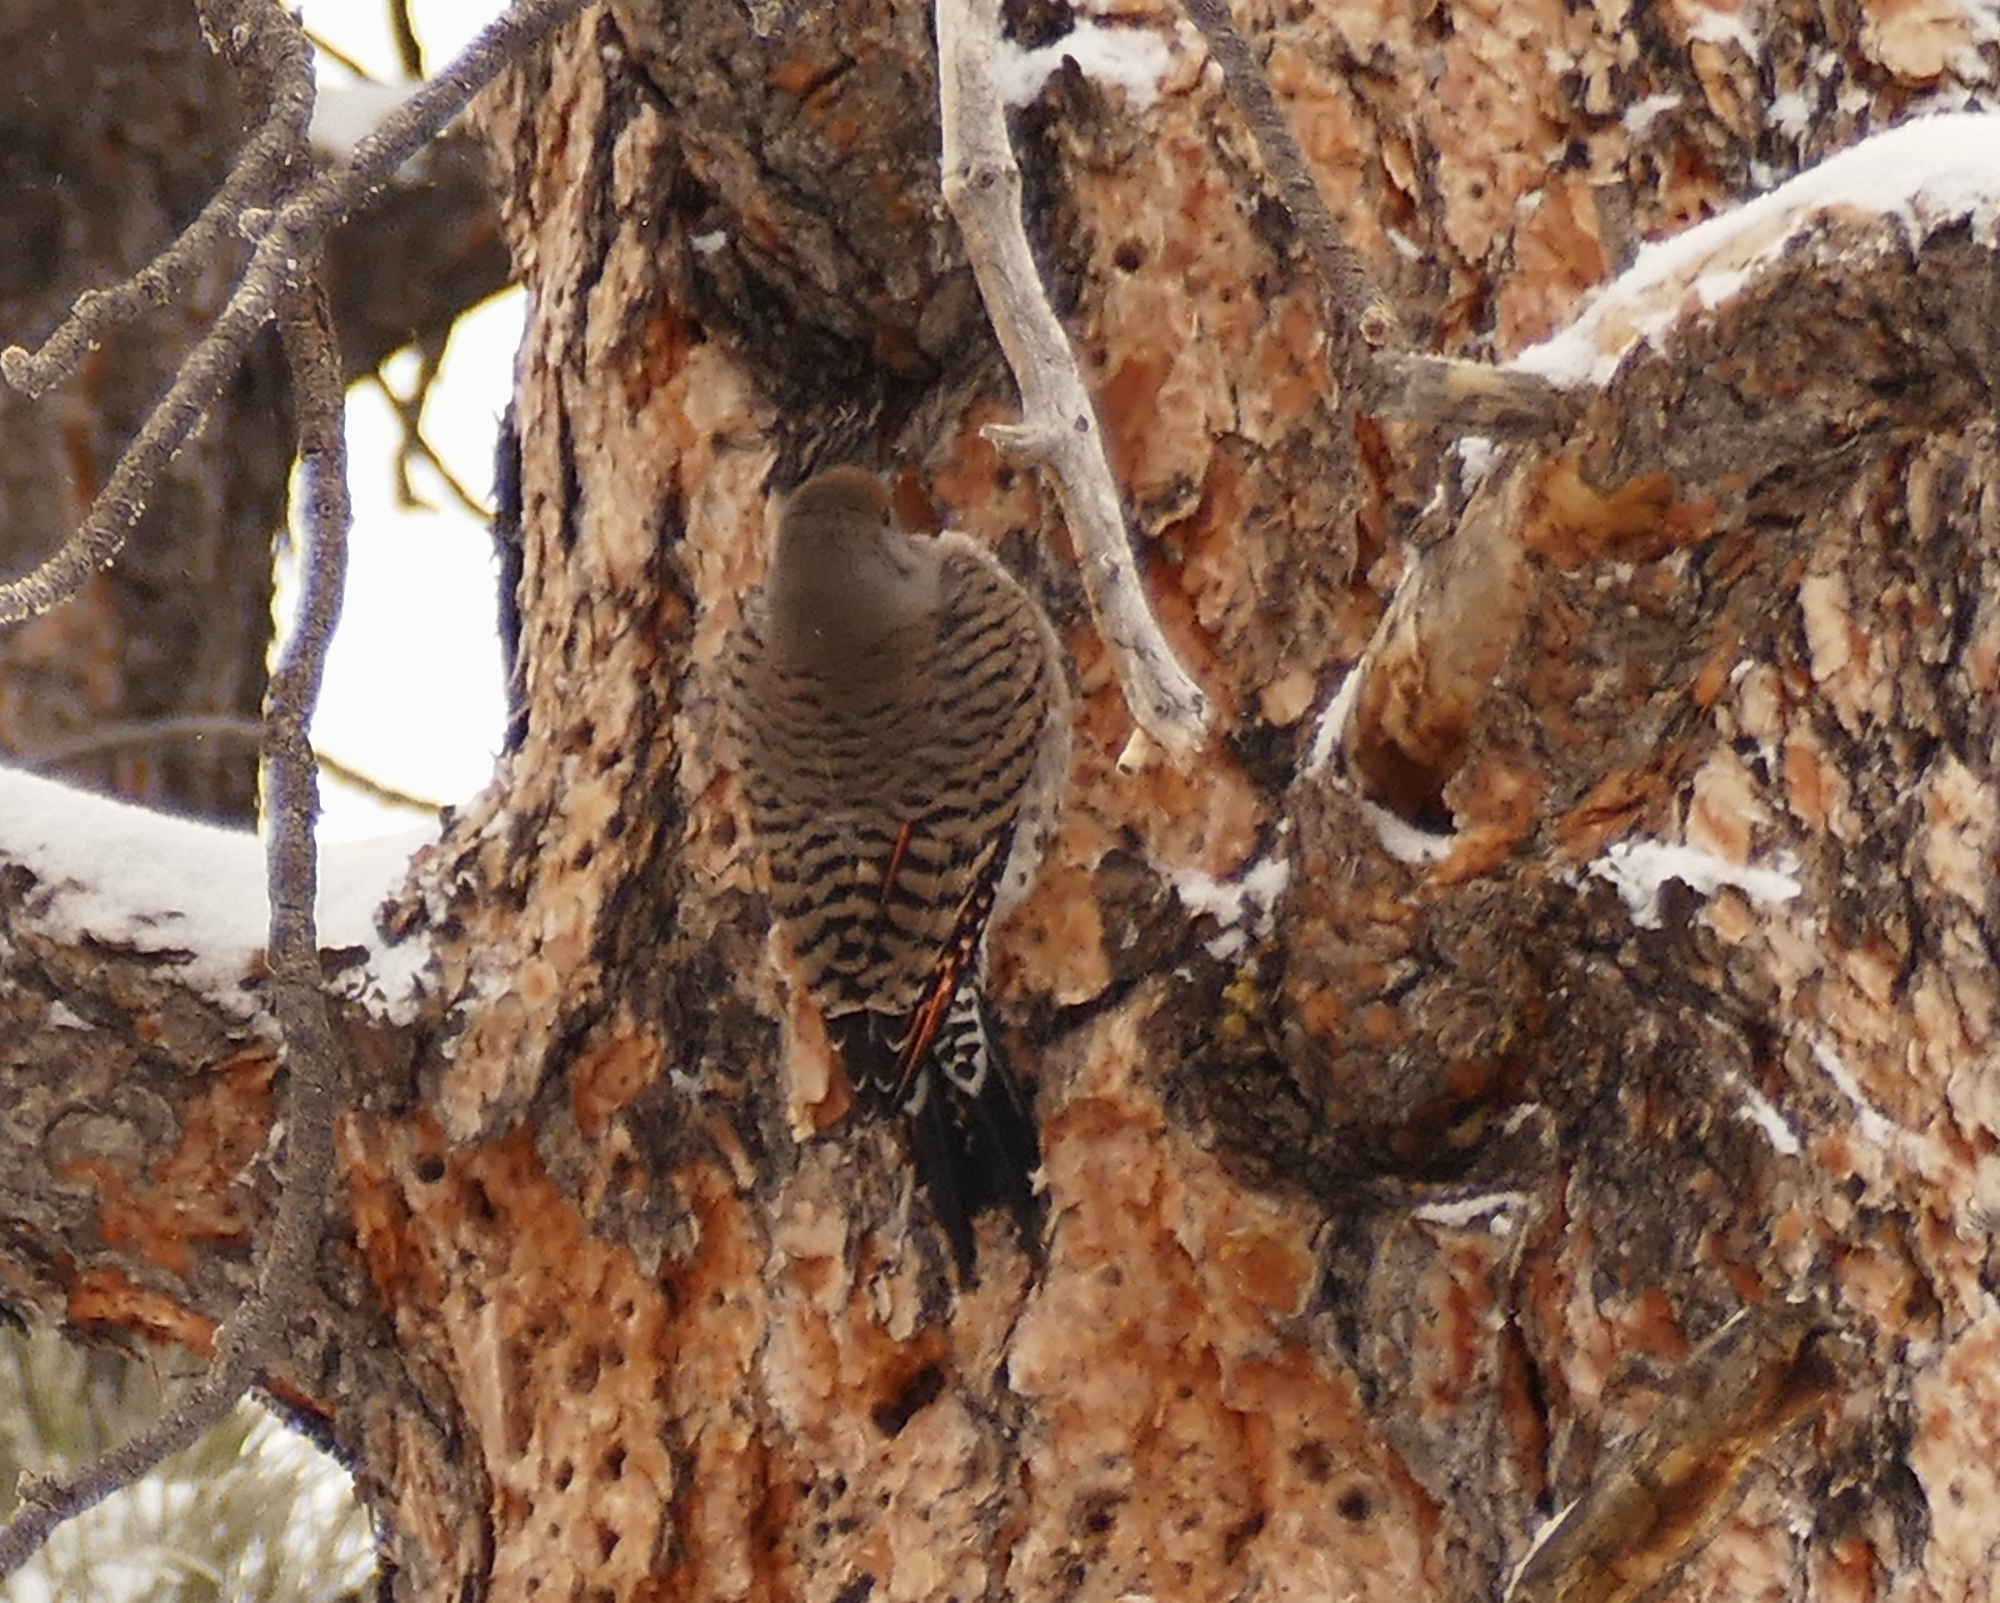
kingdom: Animalia
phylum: Chordata
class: Aves
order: Piciformes
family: Picidae
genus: Colaptes
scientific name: Colaptes auratus
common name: Northern flicker
